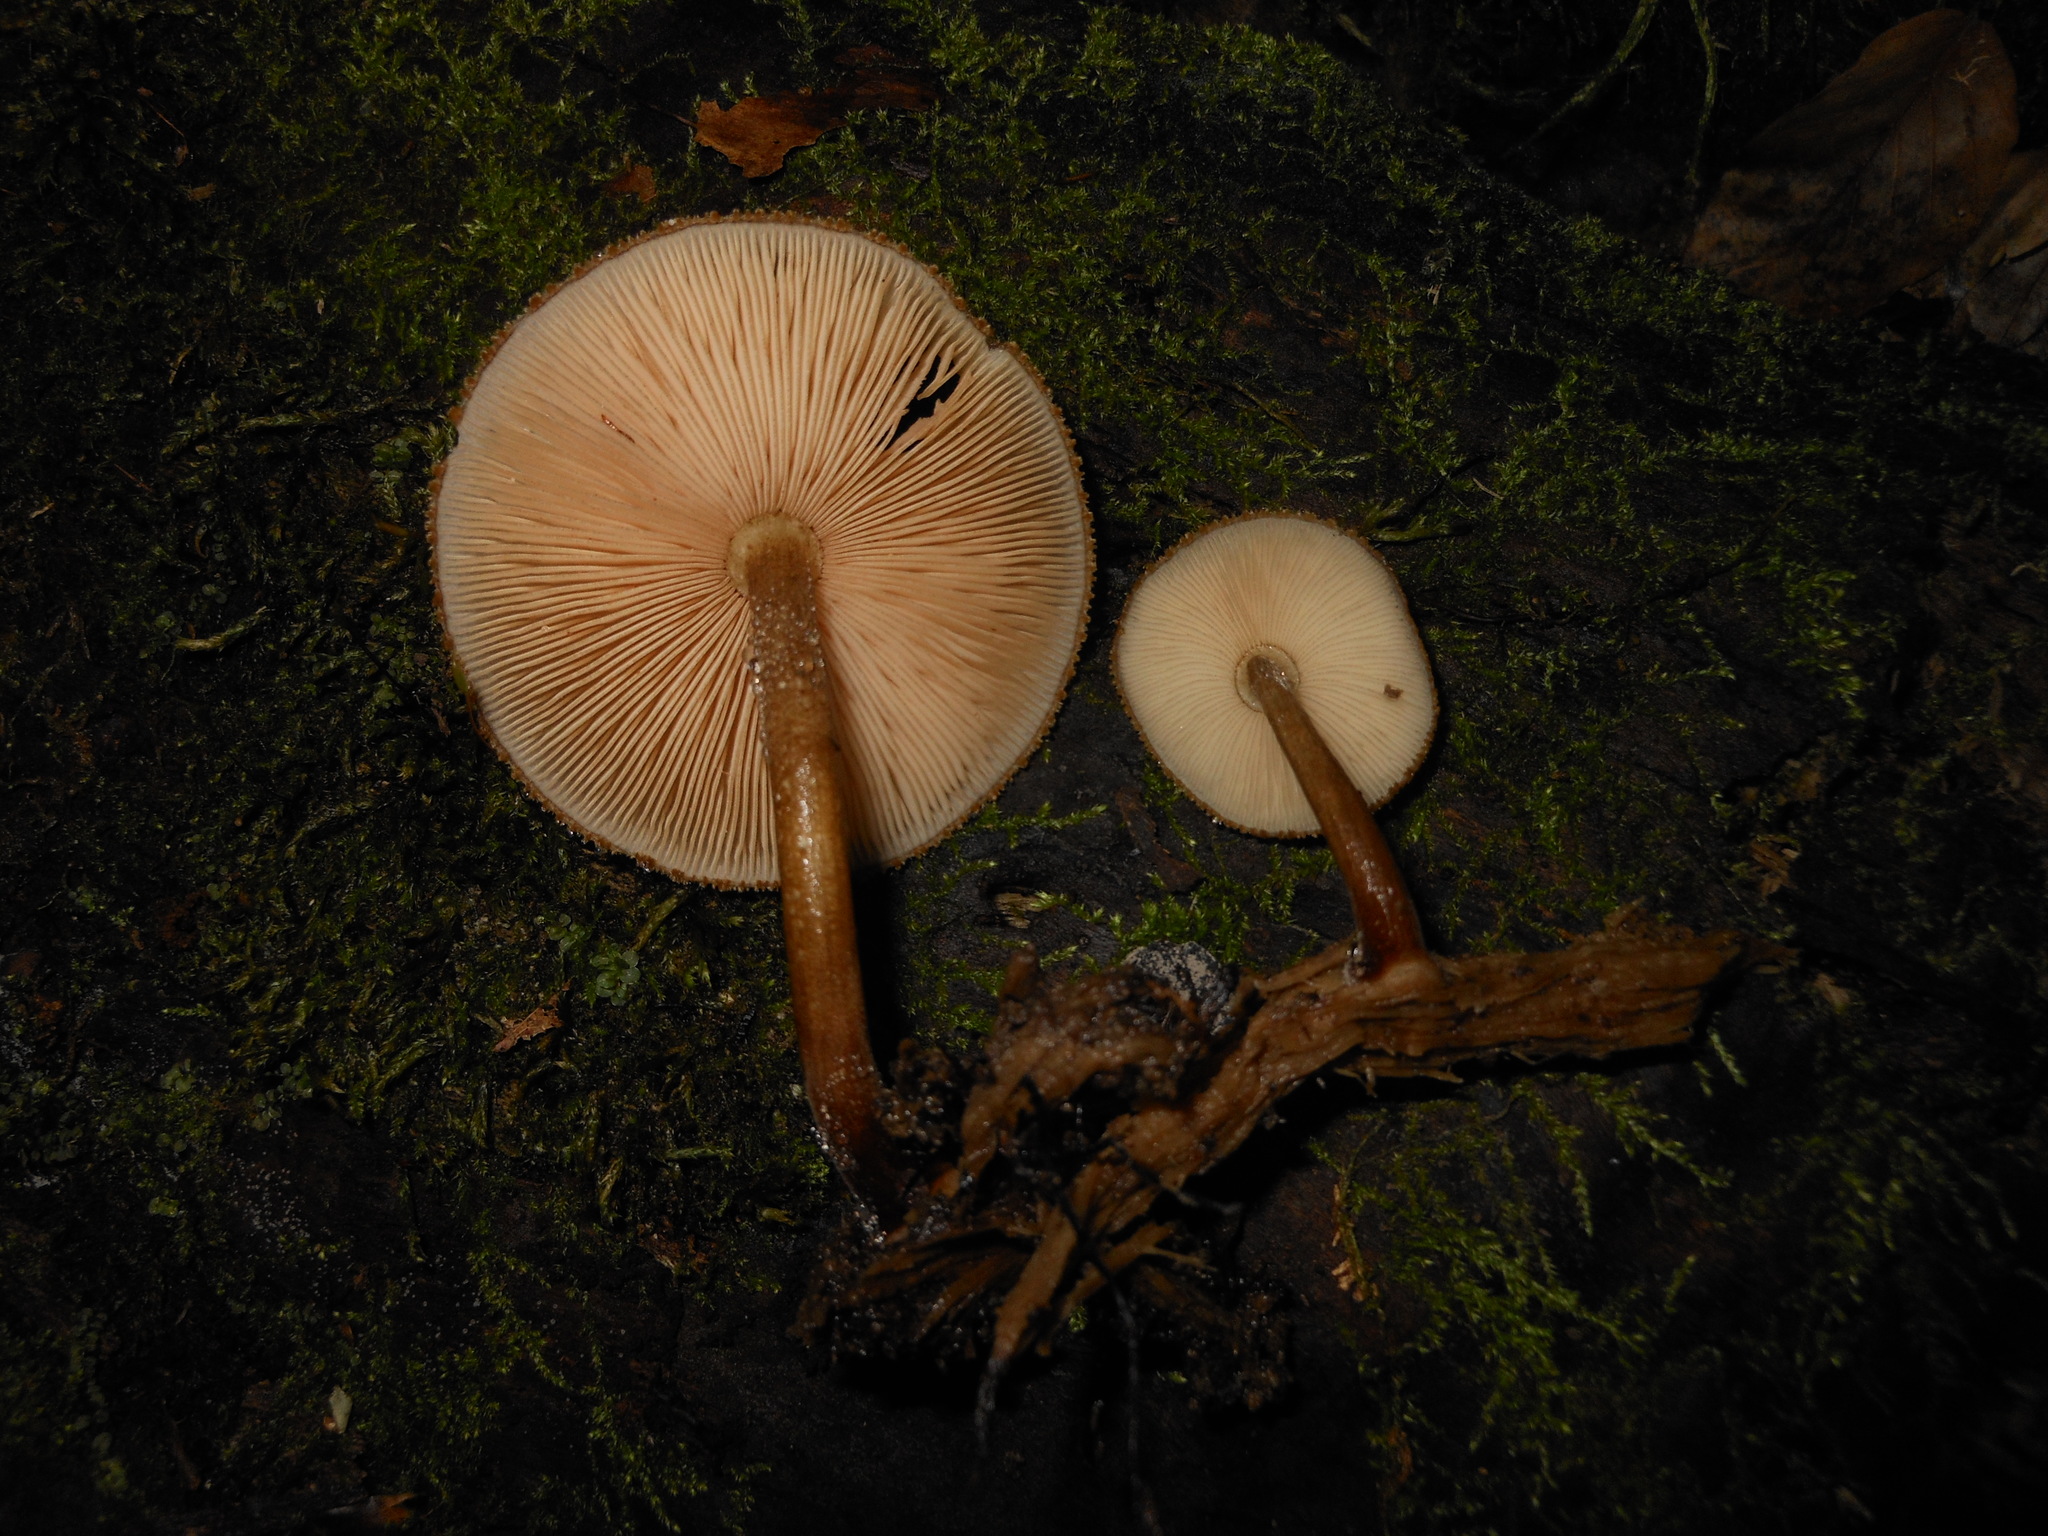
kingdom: Fungi
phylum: Basidiomycota
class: Agaricomycetes
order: Agaricales
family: Pluteaceae
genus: Pluteus
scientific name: Pluteus granularis
